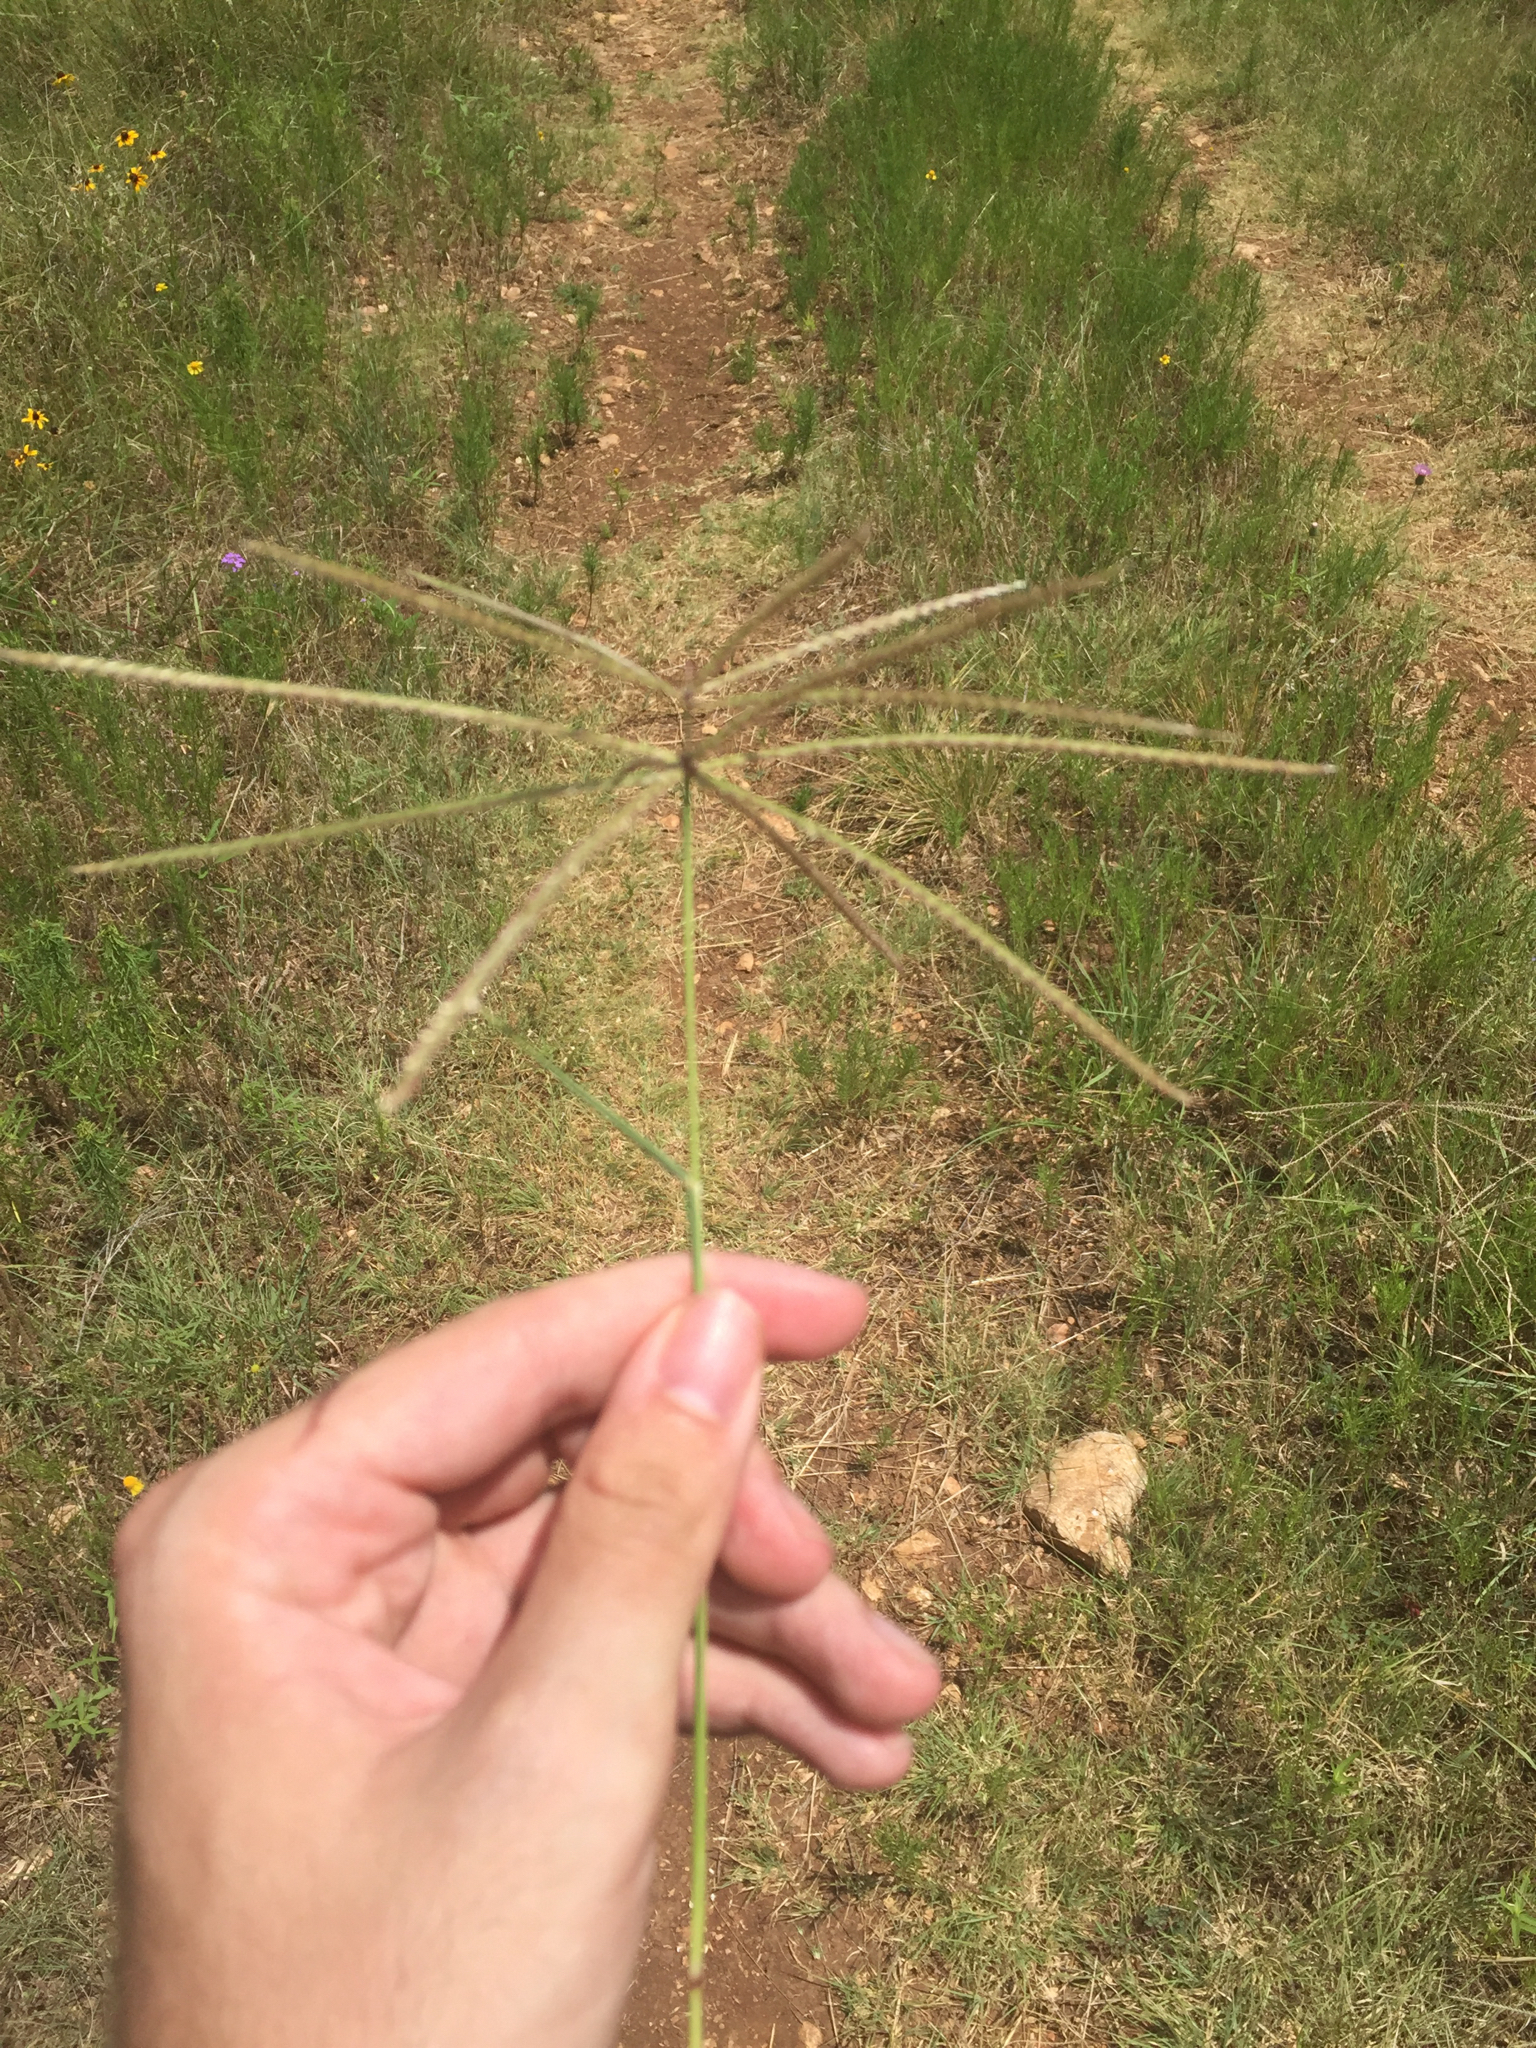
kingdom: Plantae
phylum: Tracheophyta
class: Liliopsida
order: Poales
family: Poaceae
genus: Chloris
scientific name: Chloris verticillata
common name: Tumble windmill grass
